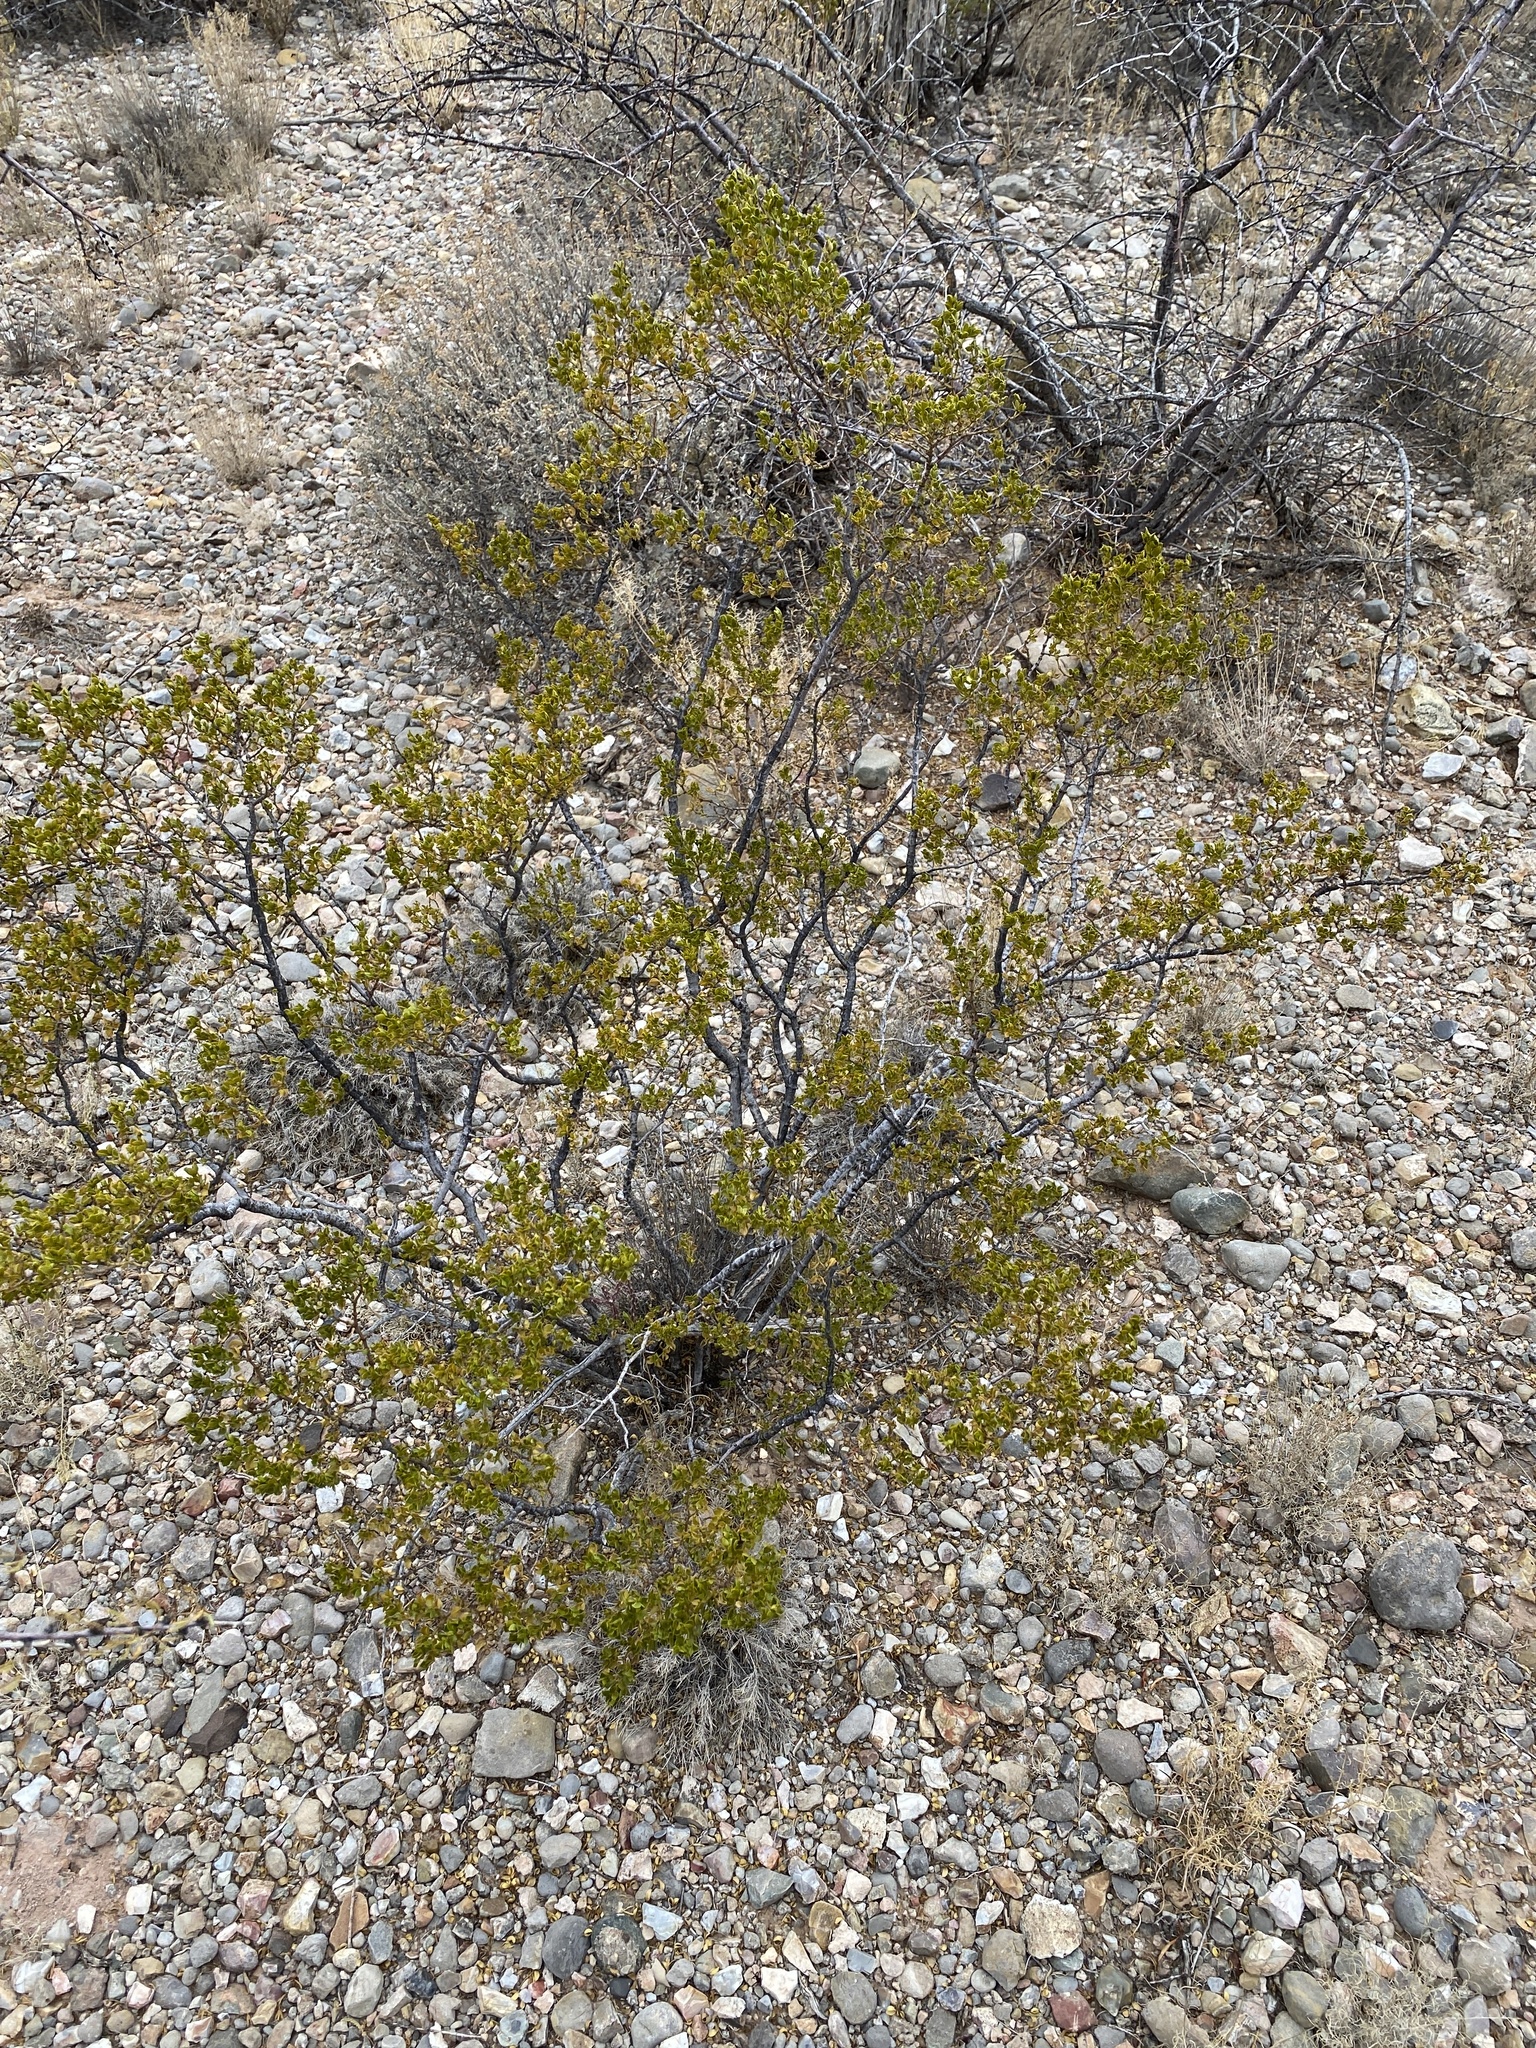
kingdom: Plantae
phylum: Tracheophyta
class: Magnoliopsida
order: Zygophyllales
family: Zygophyllaceae
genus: Larrea
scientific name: Larrea tridentata
